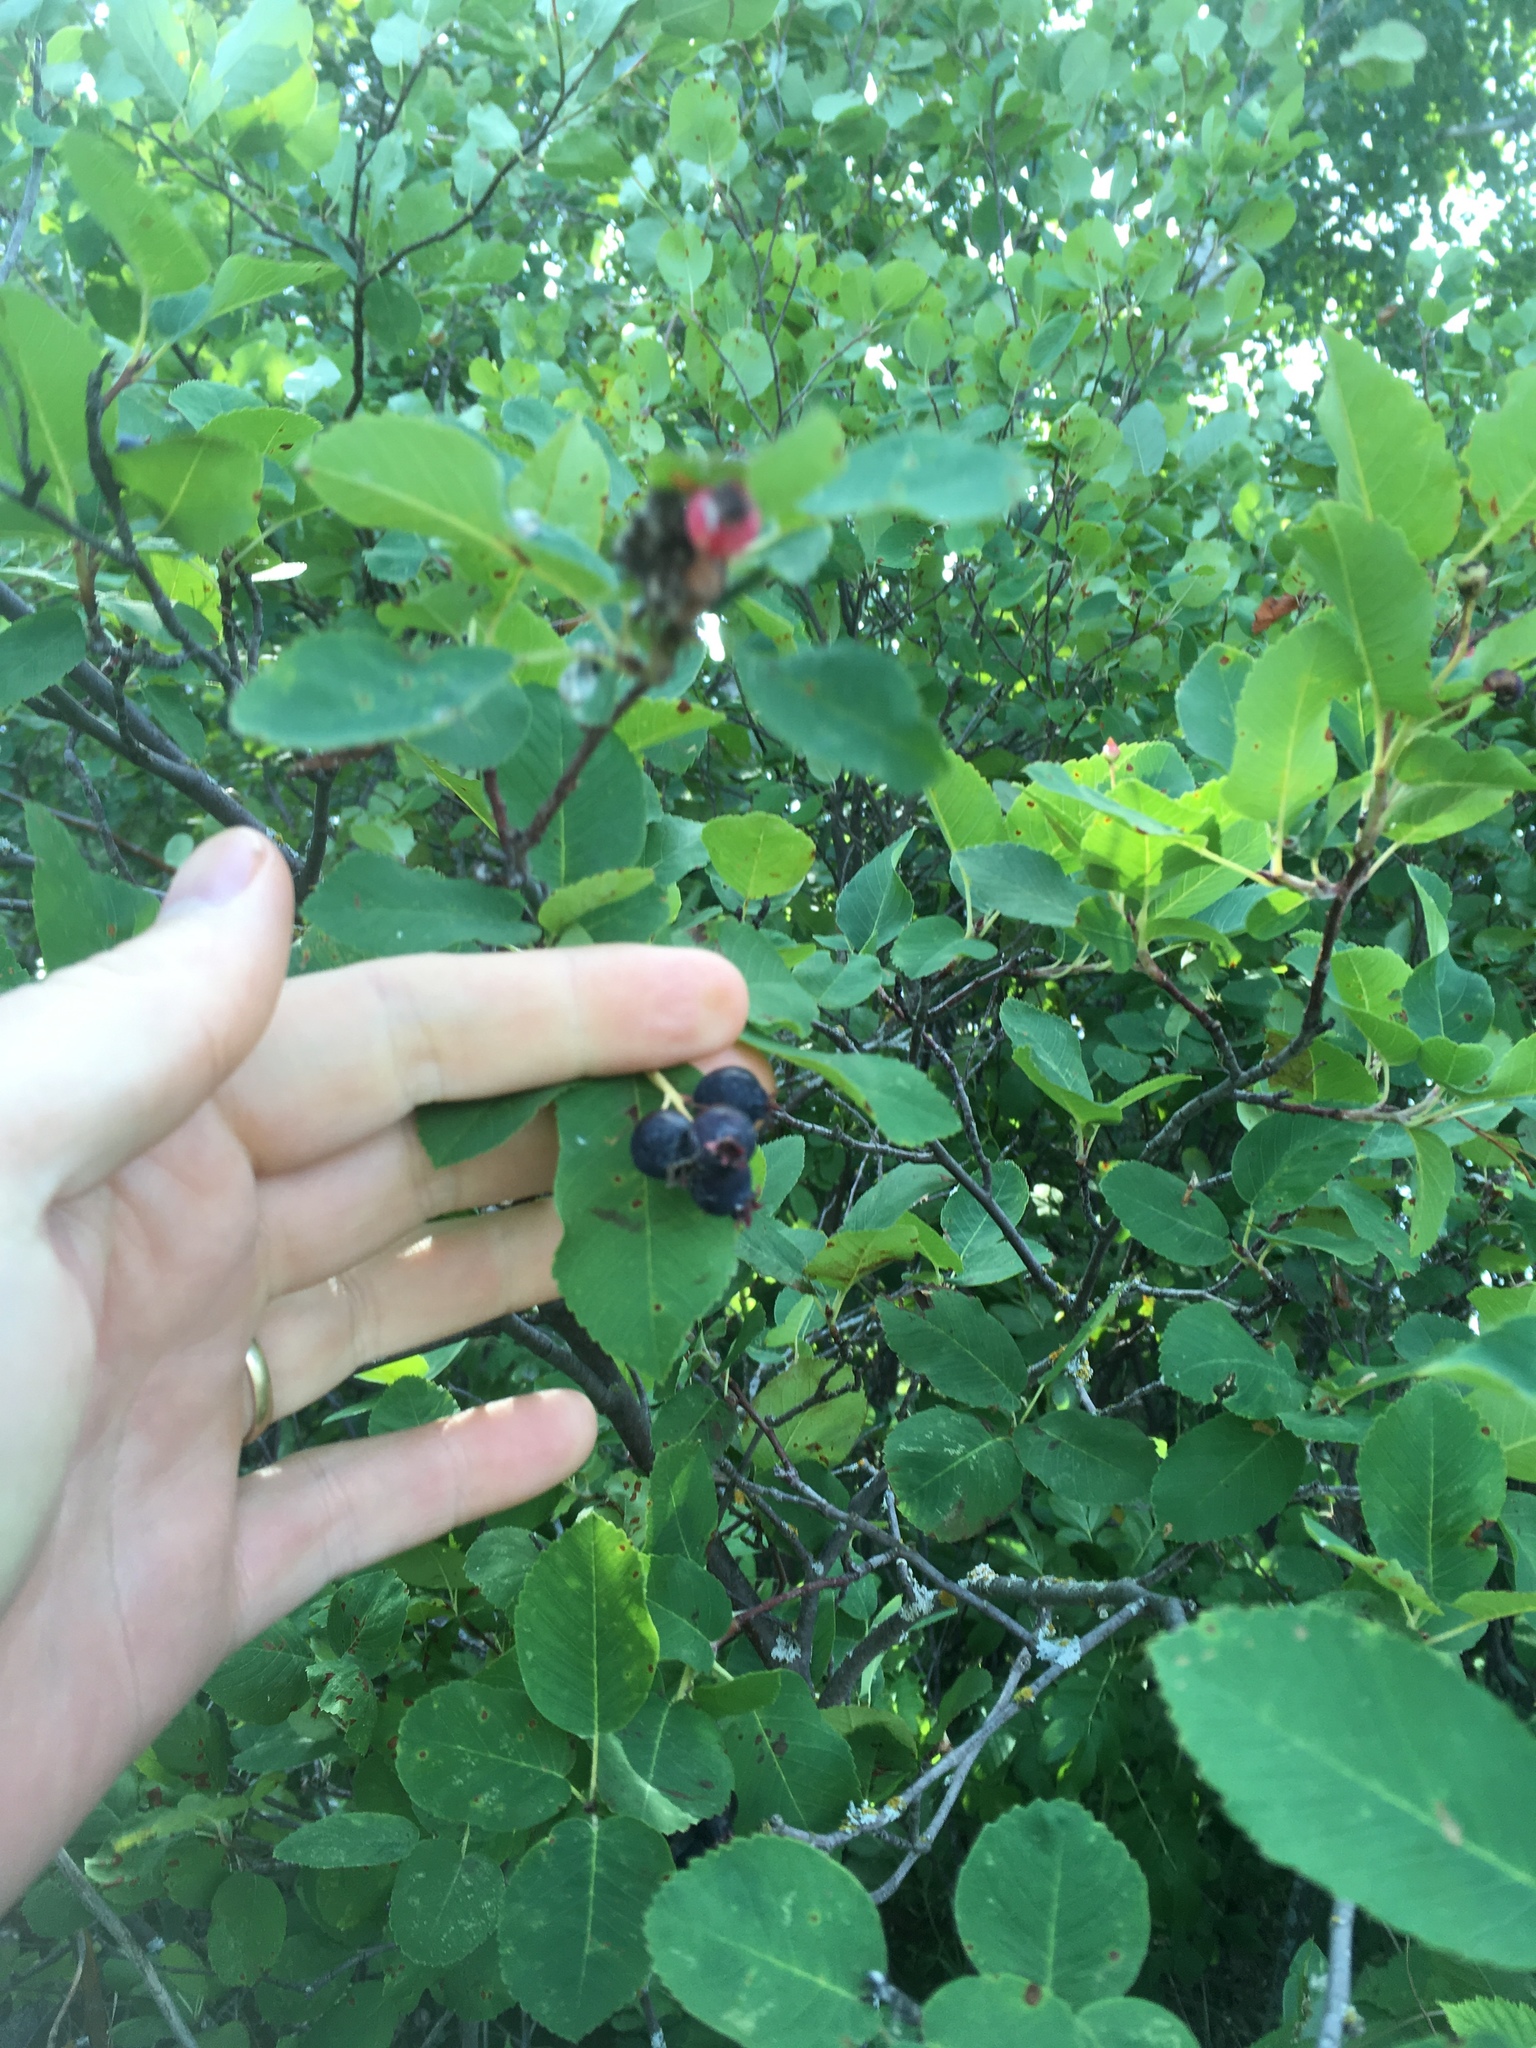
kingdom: Plantae
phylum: Tracheophyta
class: Magnoliopsida
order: Rosales
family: Rosaceae
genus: Amelanchier
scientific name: Amelanchier alnifolia
